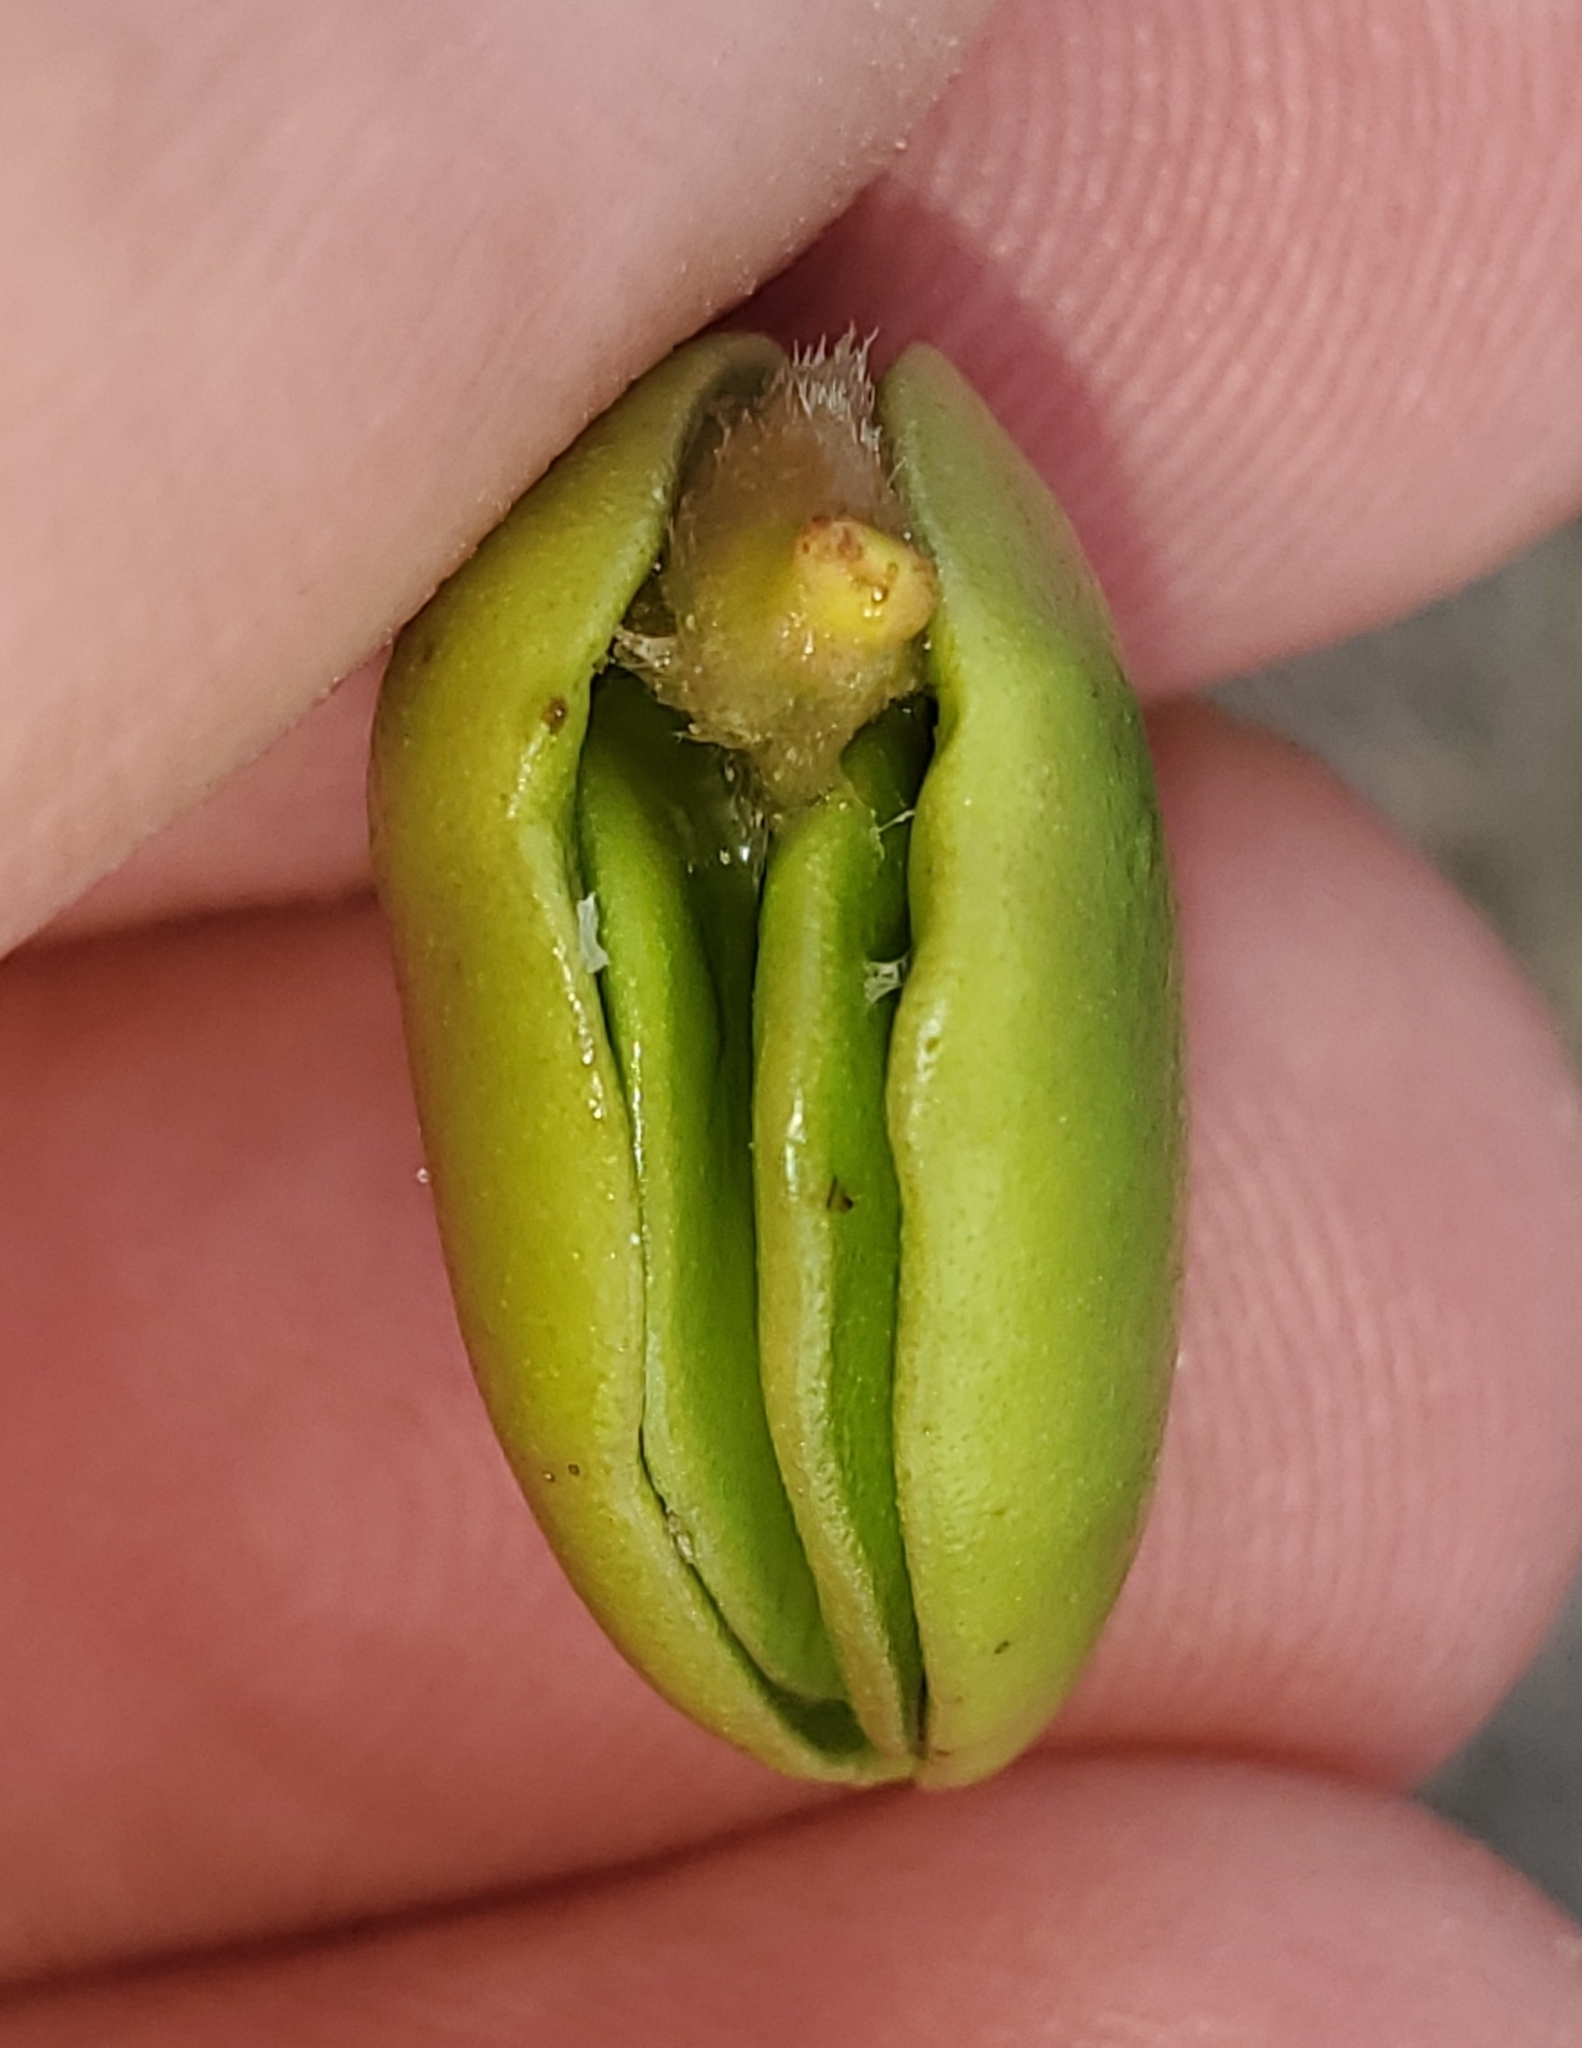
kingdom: Plantae
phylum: Tracheophyta
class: Magnoliopsida
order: Lamiales
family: Acanthaceae
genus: Avicennia
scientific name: Avicennia germinans
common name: Black mangrove
